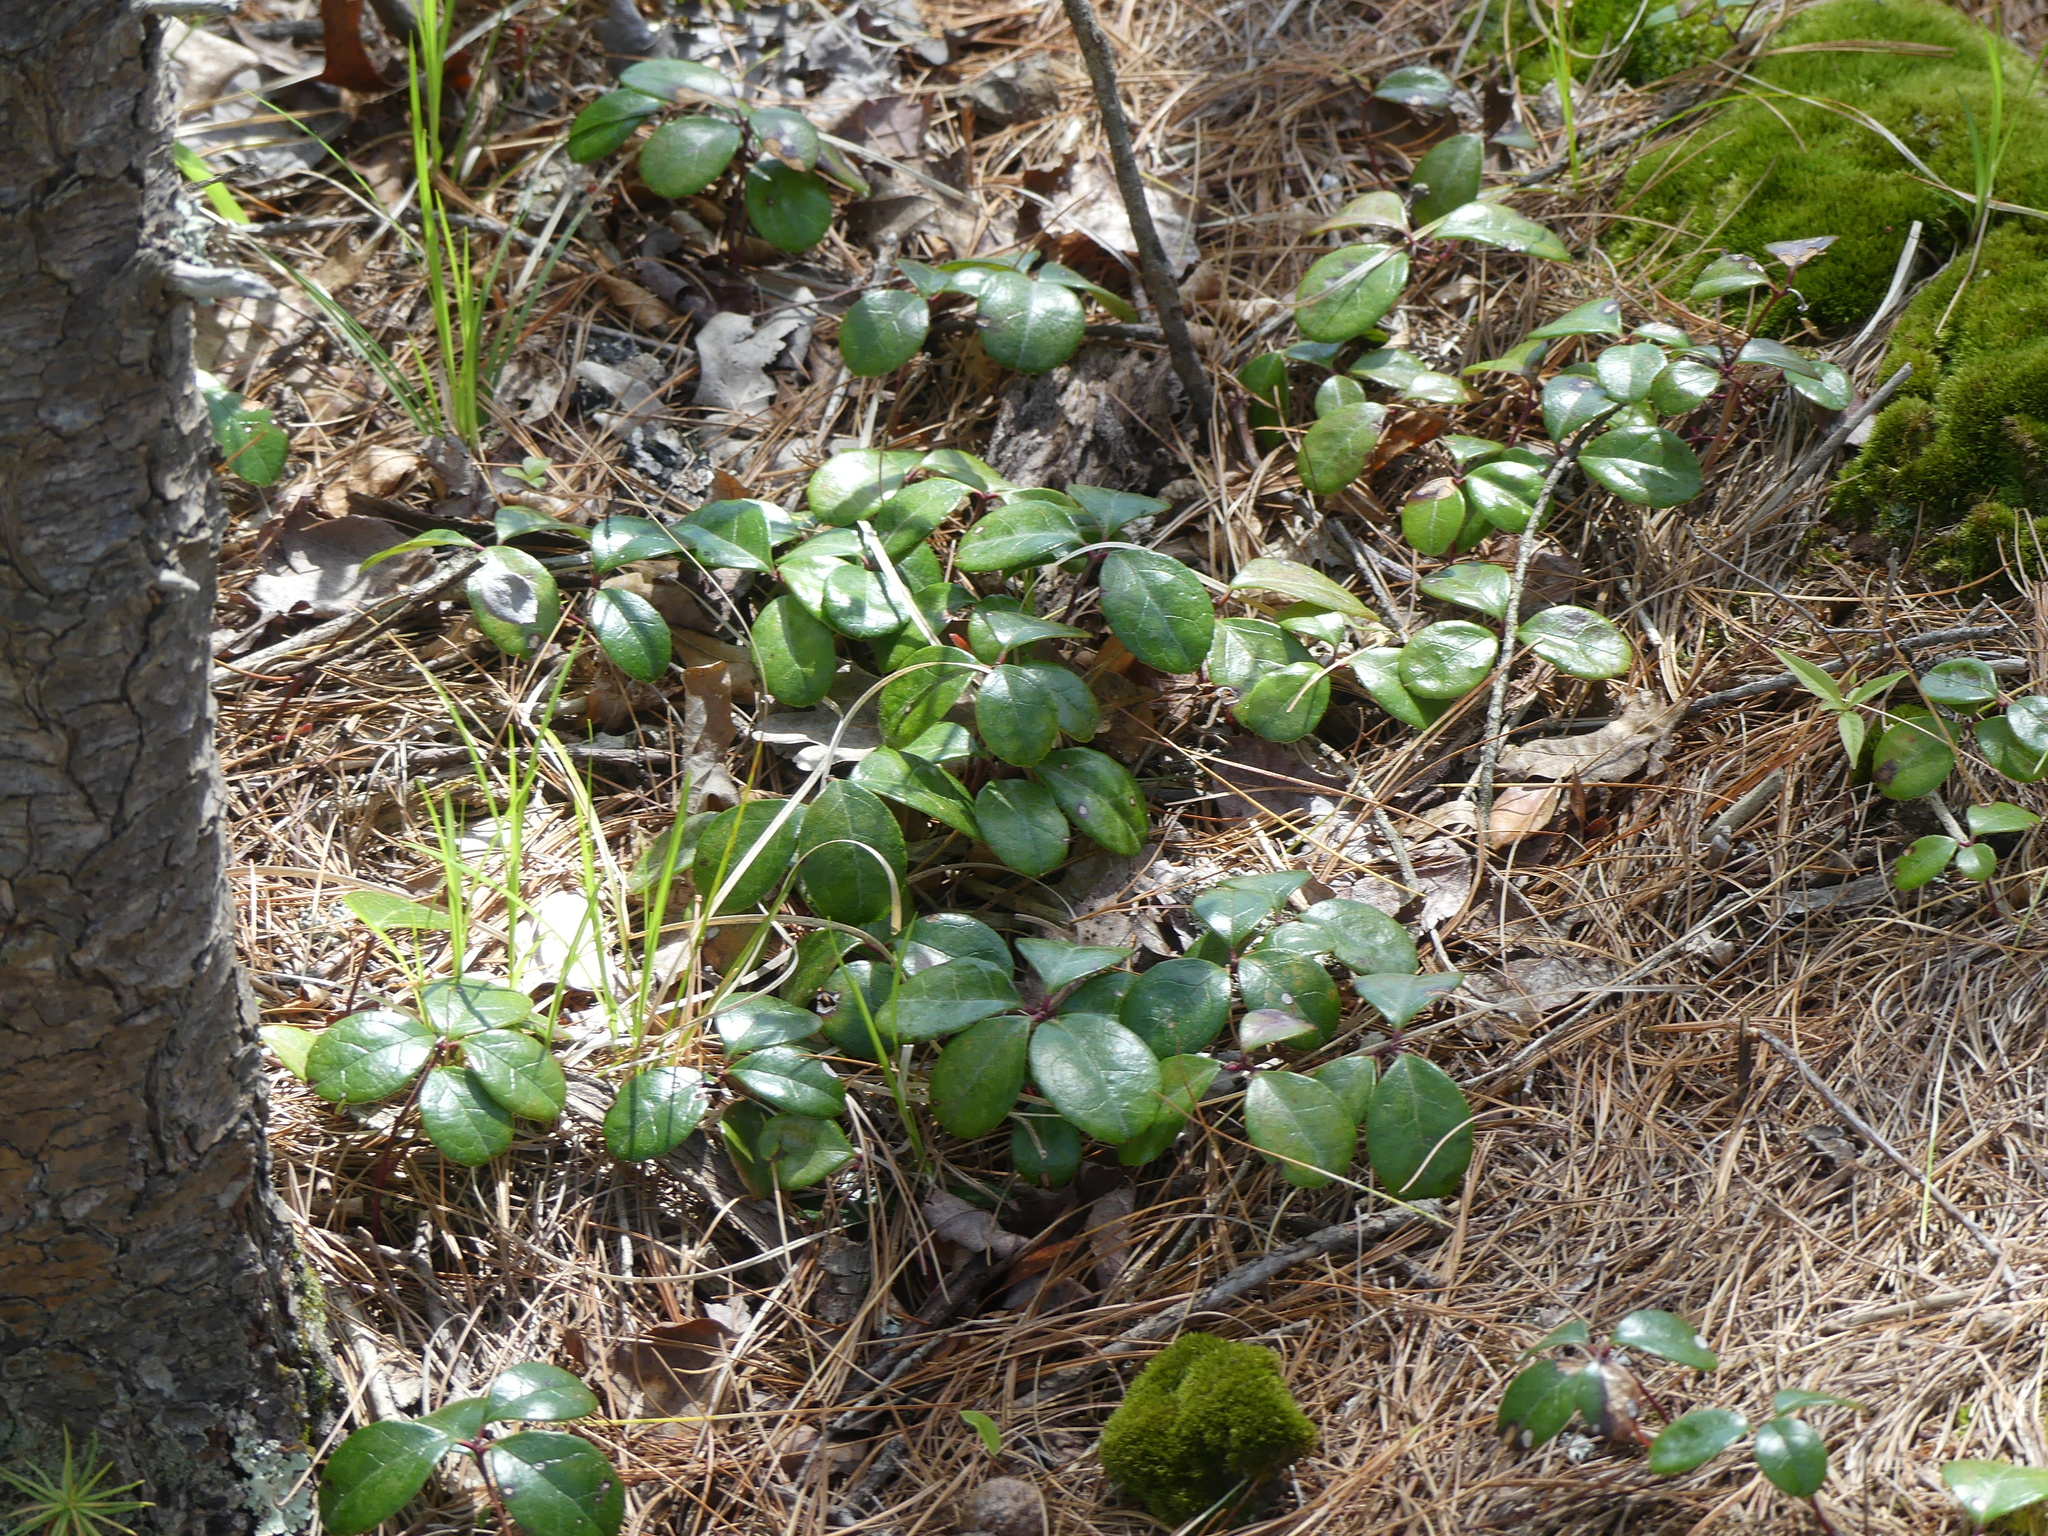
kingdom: Plantae
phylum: Tracheophyta
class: Magnoliopsida
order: Ericales
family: Ericaceae
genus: Gaultheria
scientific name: Gaultheria procumbens
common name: Checkerberry
